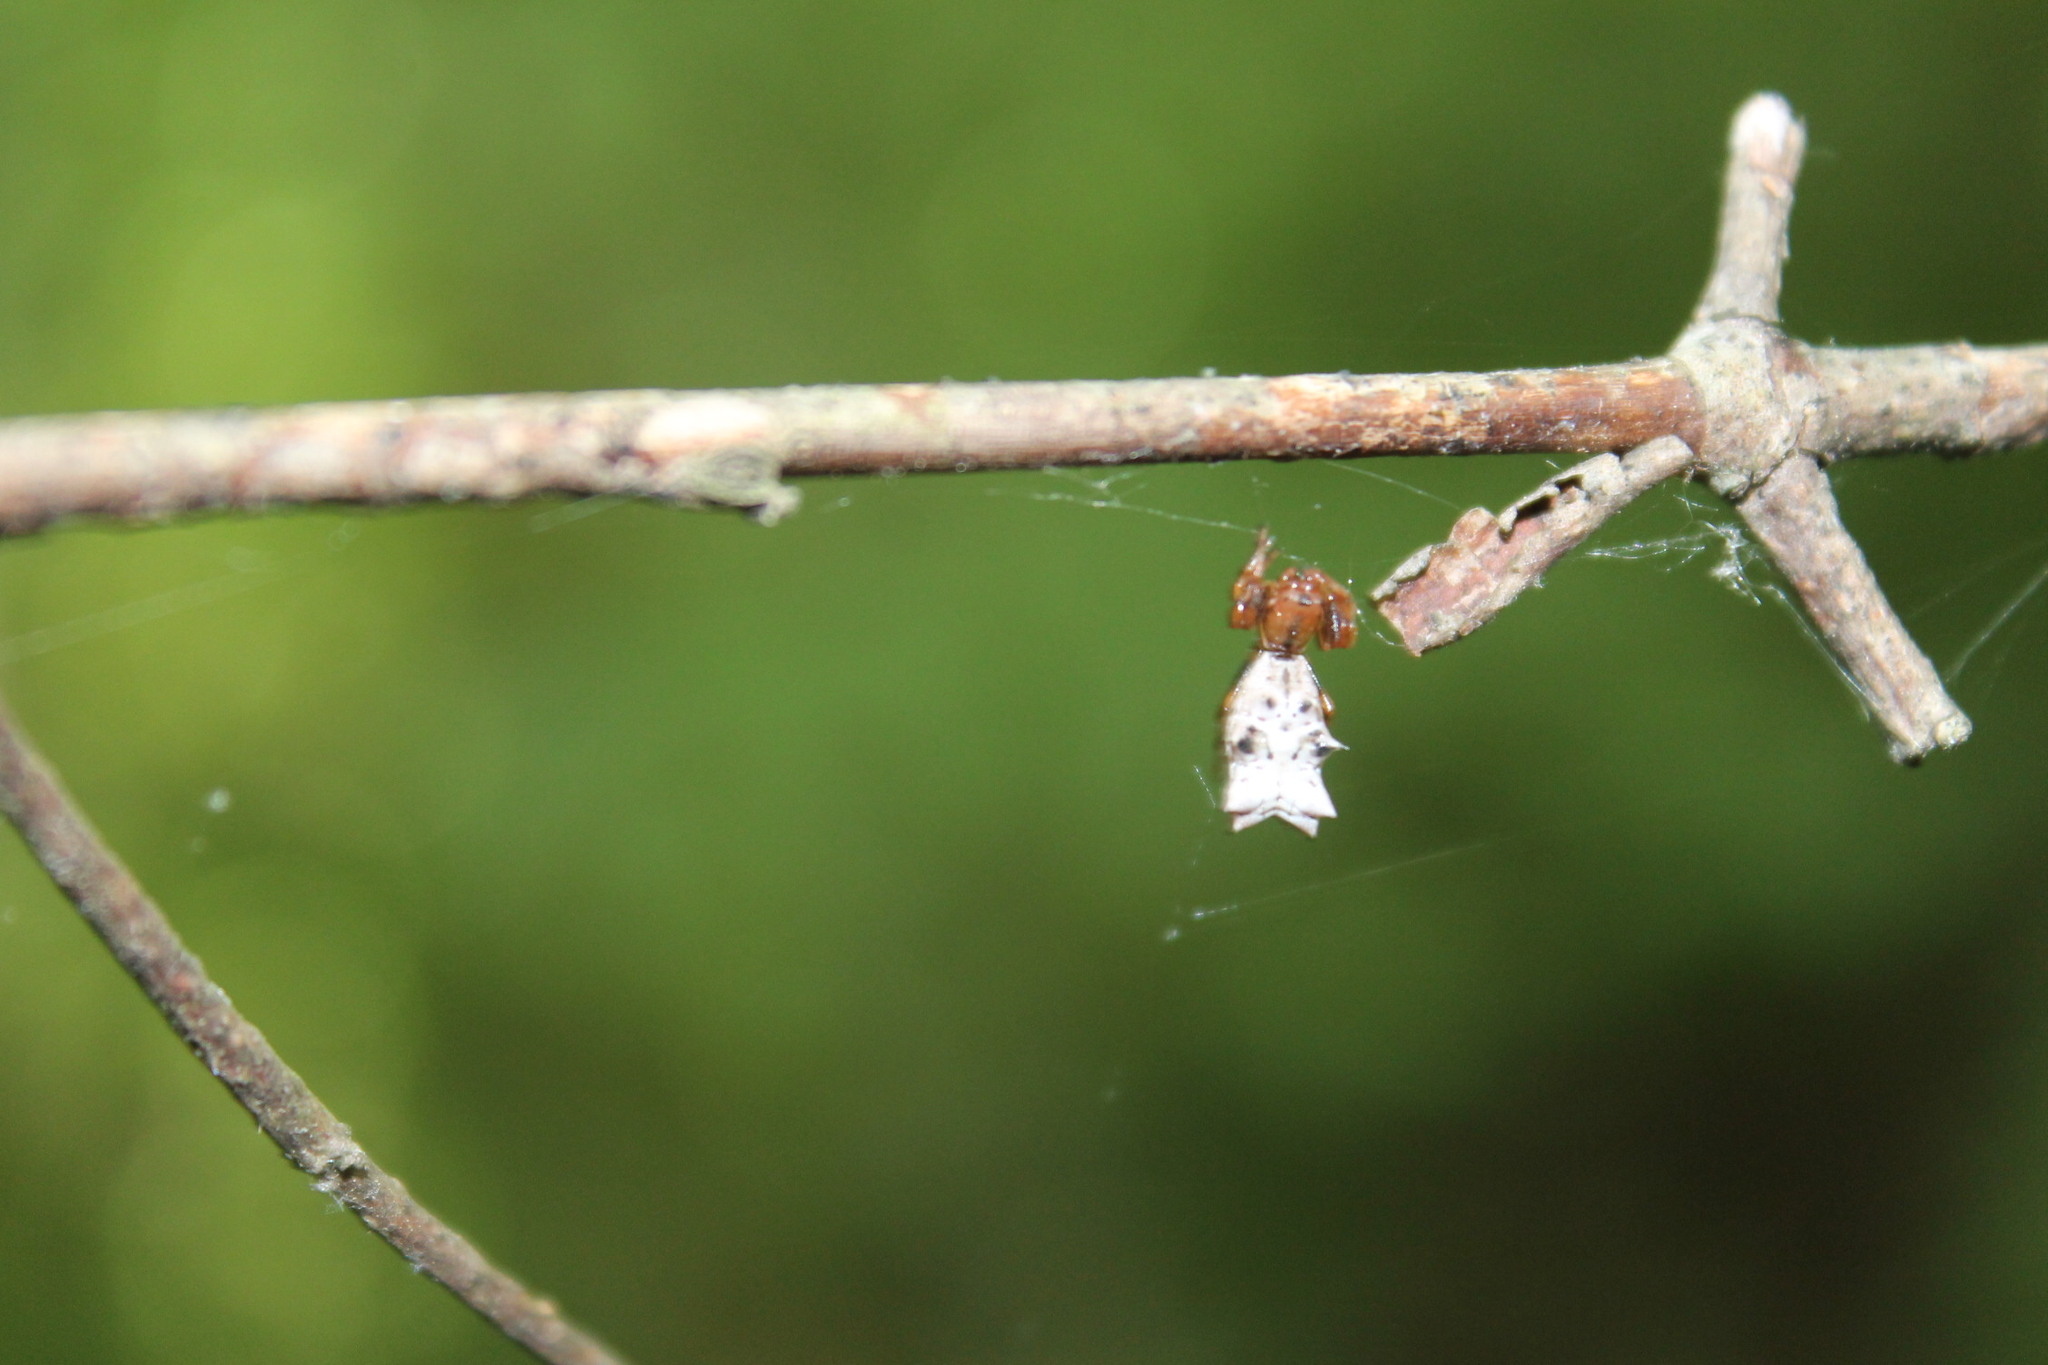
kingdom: Animalia
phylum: Arthropoda
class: Arachnida
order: Araneae
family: Araneidae
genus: Micrathena
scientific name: Micrathena gracilis
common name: Orb weavers
